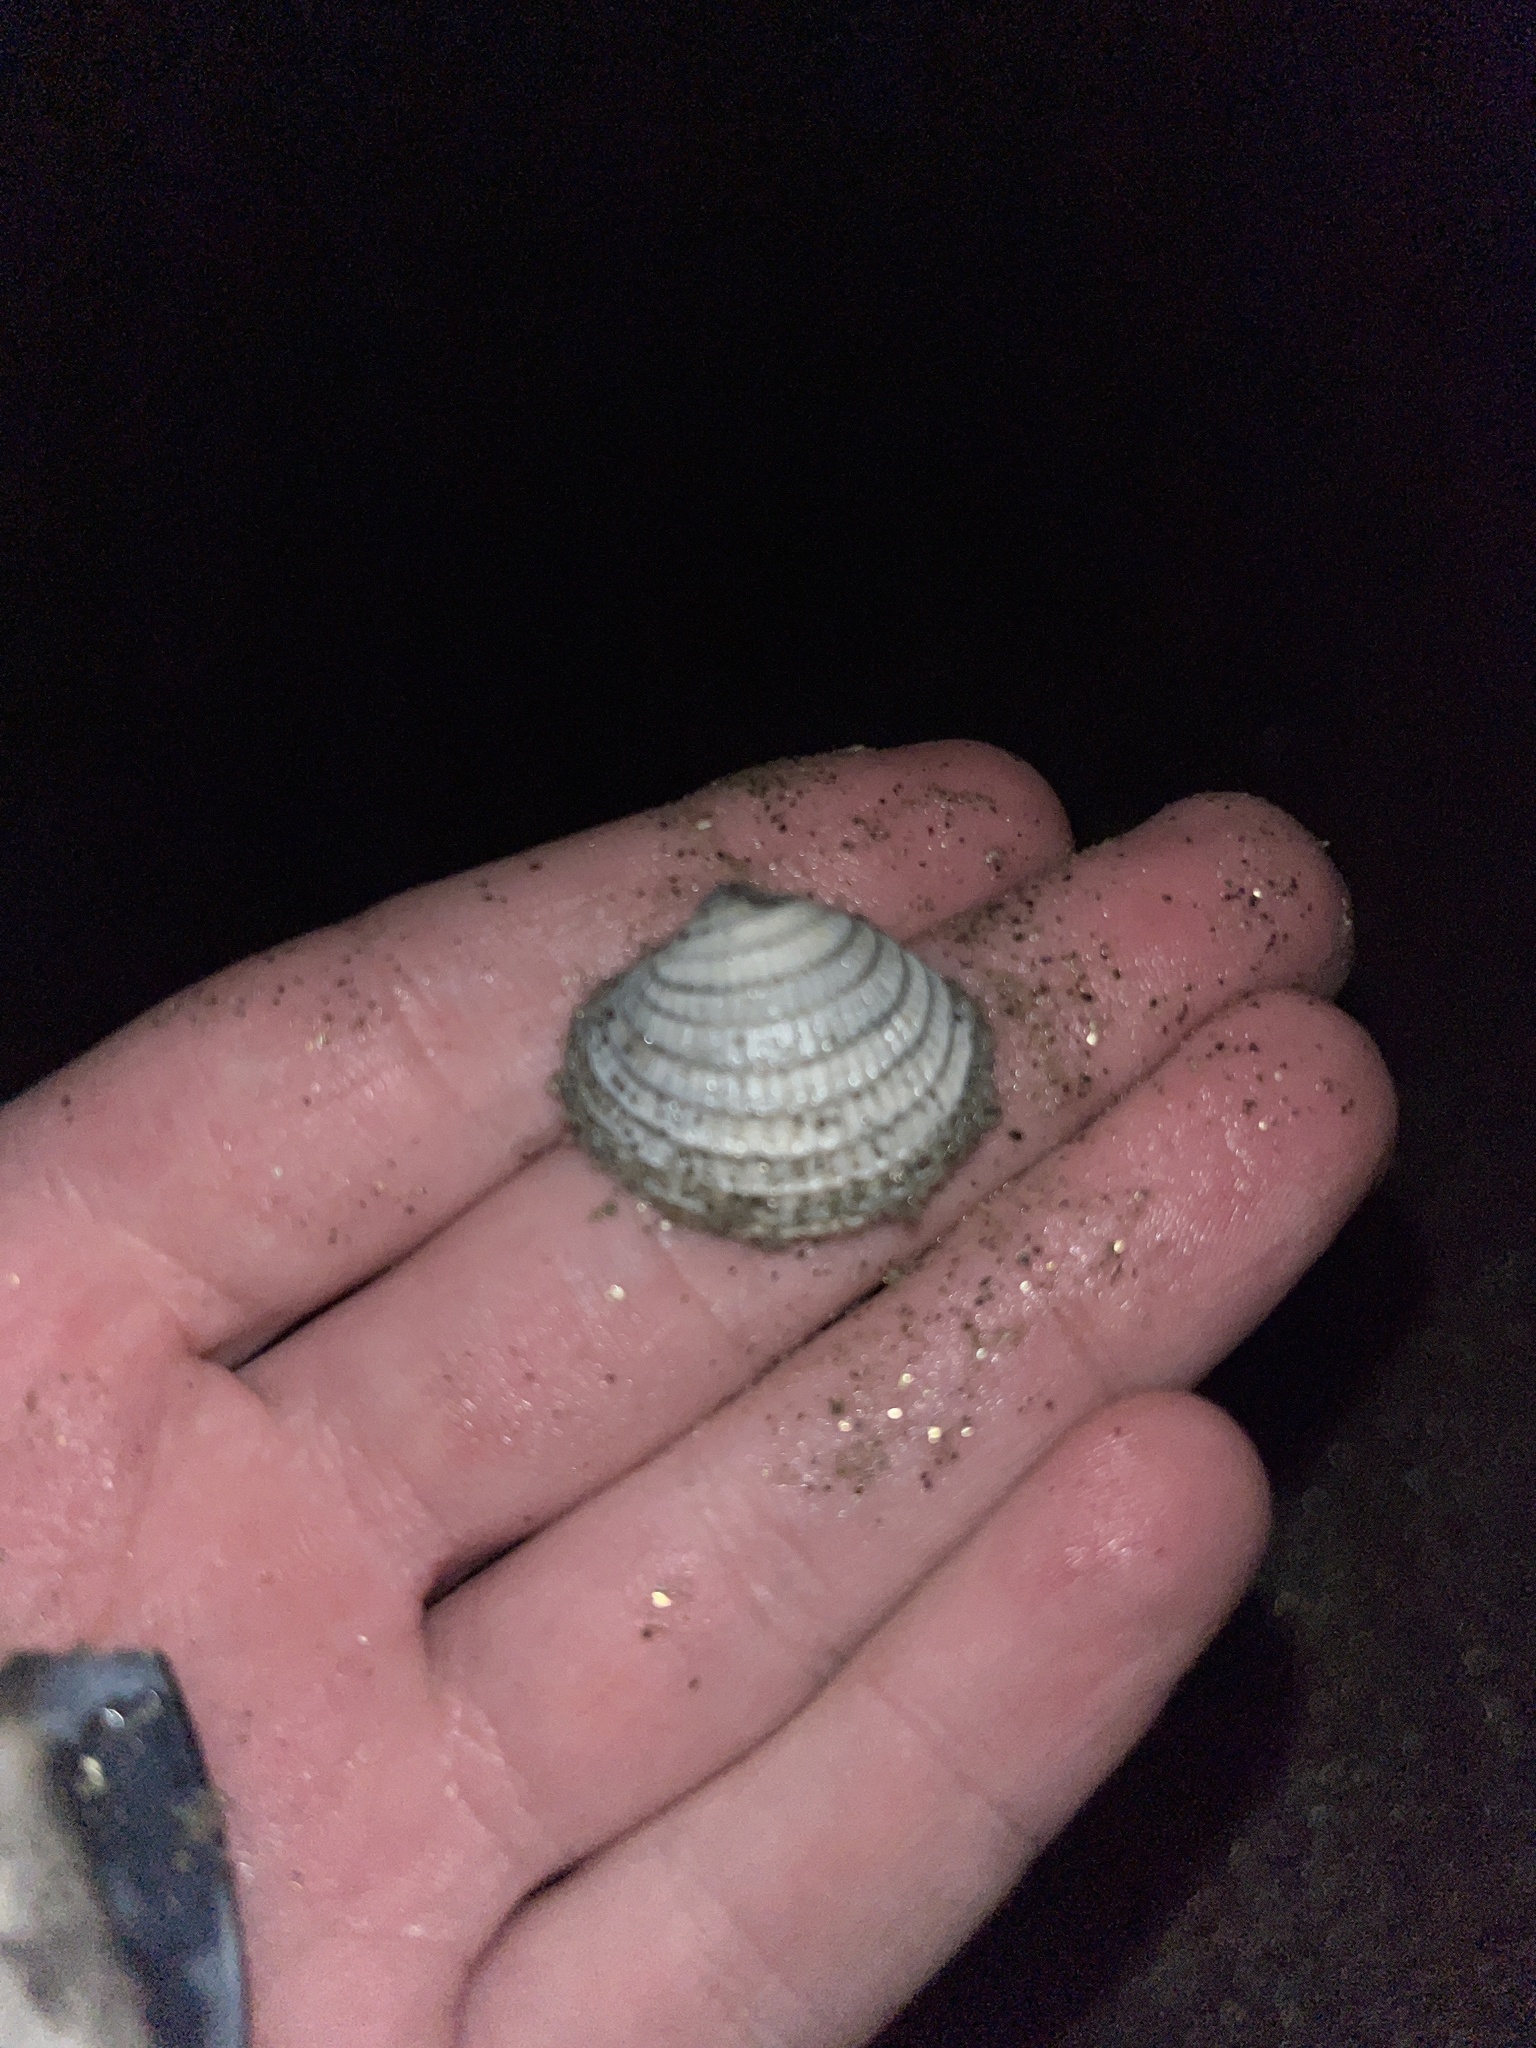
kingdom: Animalia
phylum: Mollusca
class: Bivalvia
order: Venerida
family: Veneridae
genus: Chione
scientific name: Chione californiensis
